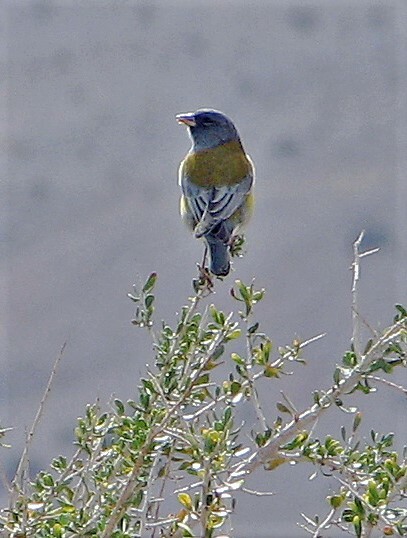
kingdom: Animalia
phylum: Chordata
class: Aves
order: Passeriformes
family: Thraupidae
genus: Phrygilus
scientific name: Phrygilus gayi
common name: Grey-hooded sierra finch
